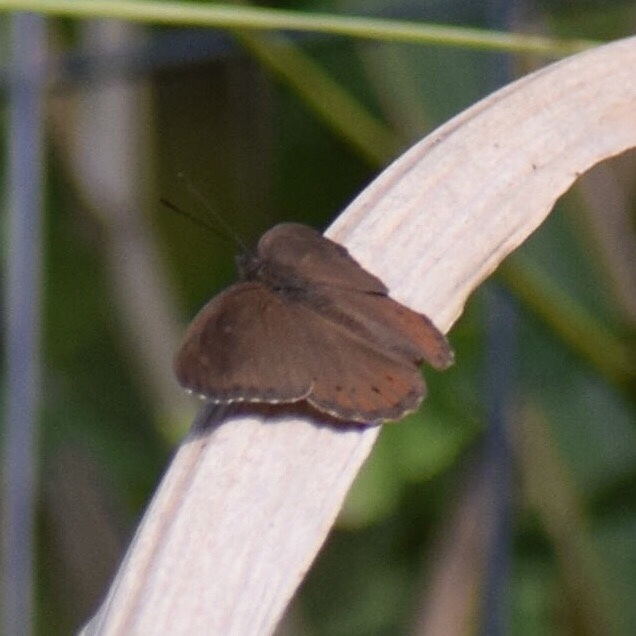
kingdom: Animalia
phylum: Arthropoda
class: Insecta
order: Lepidoptera
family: Nymphalidae
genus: Asterope
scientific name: Asterope boisduvali
